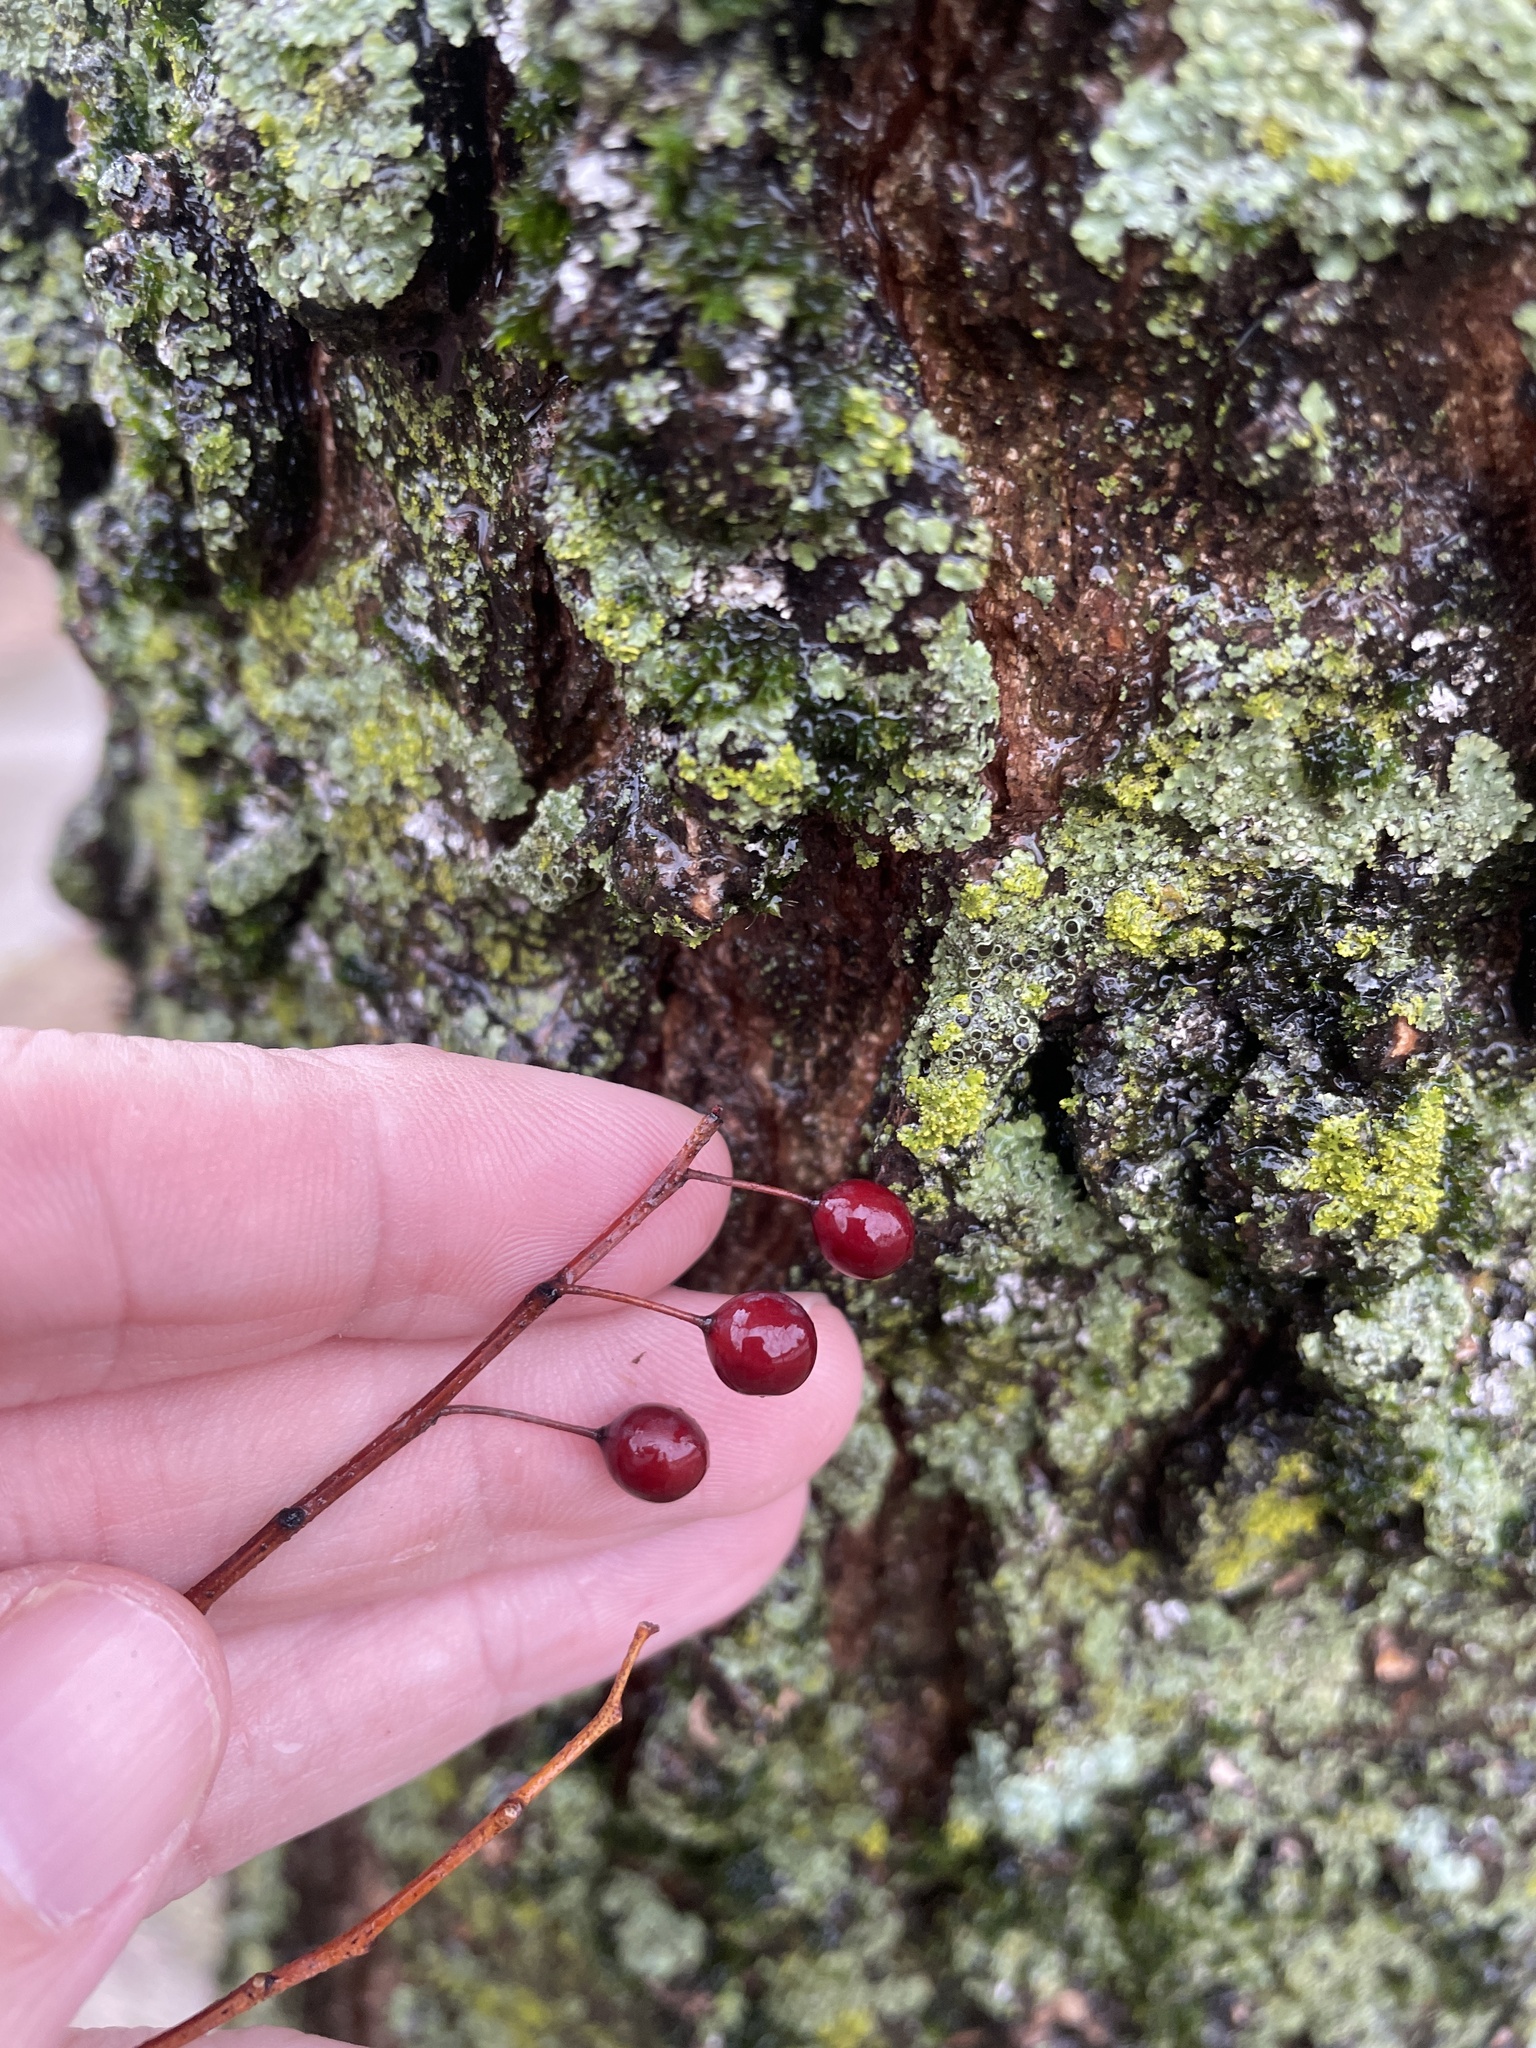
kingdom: Plantae
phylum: Tracheophyta
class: Magnoliopsida
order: Rosales
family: Cannabaceae
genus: Celtis
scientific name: Celtis laevigata
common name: Sugarberry
